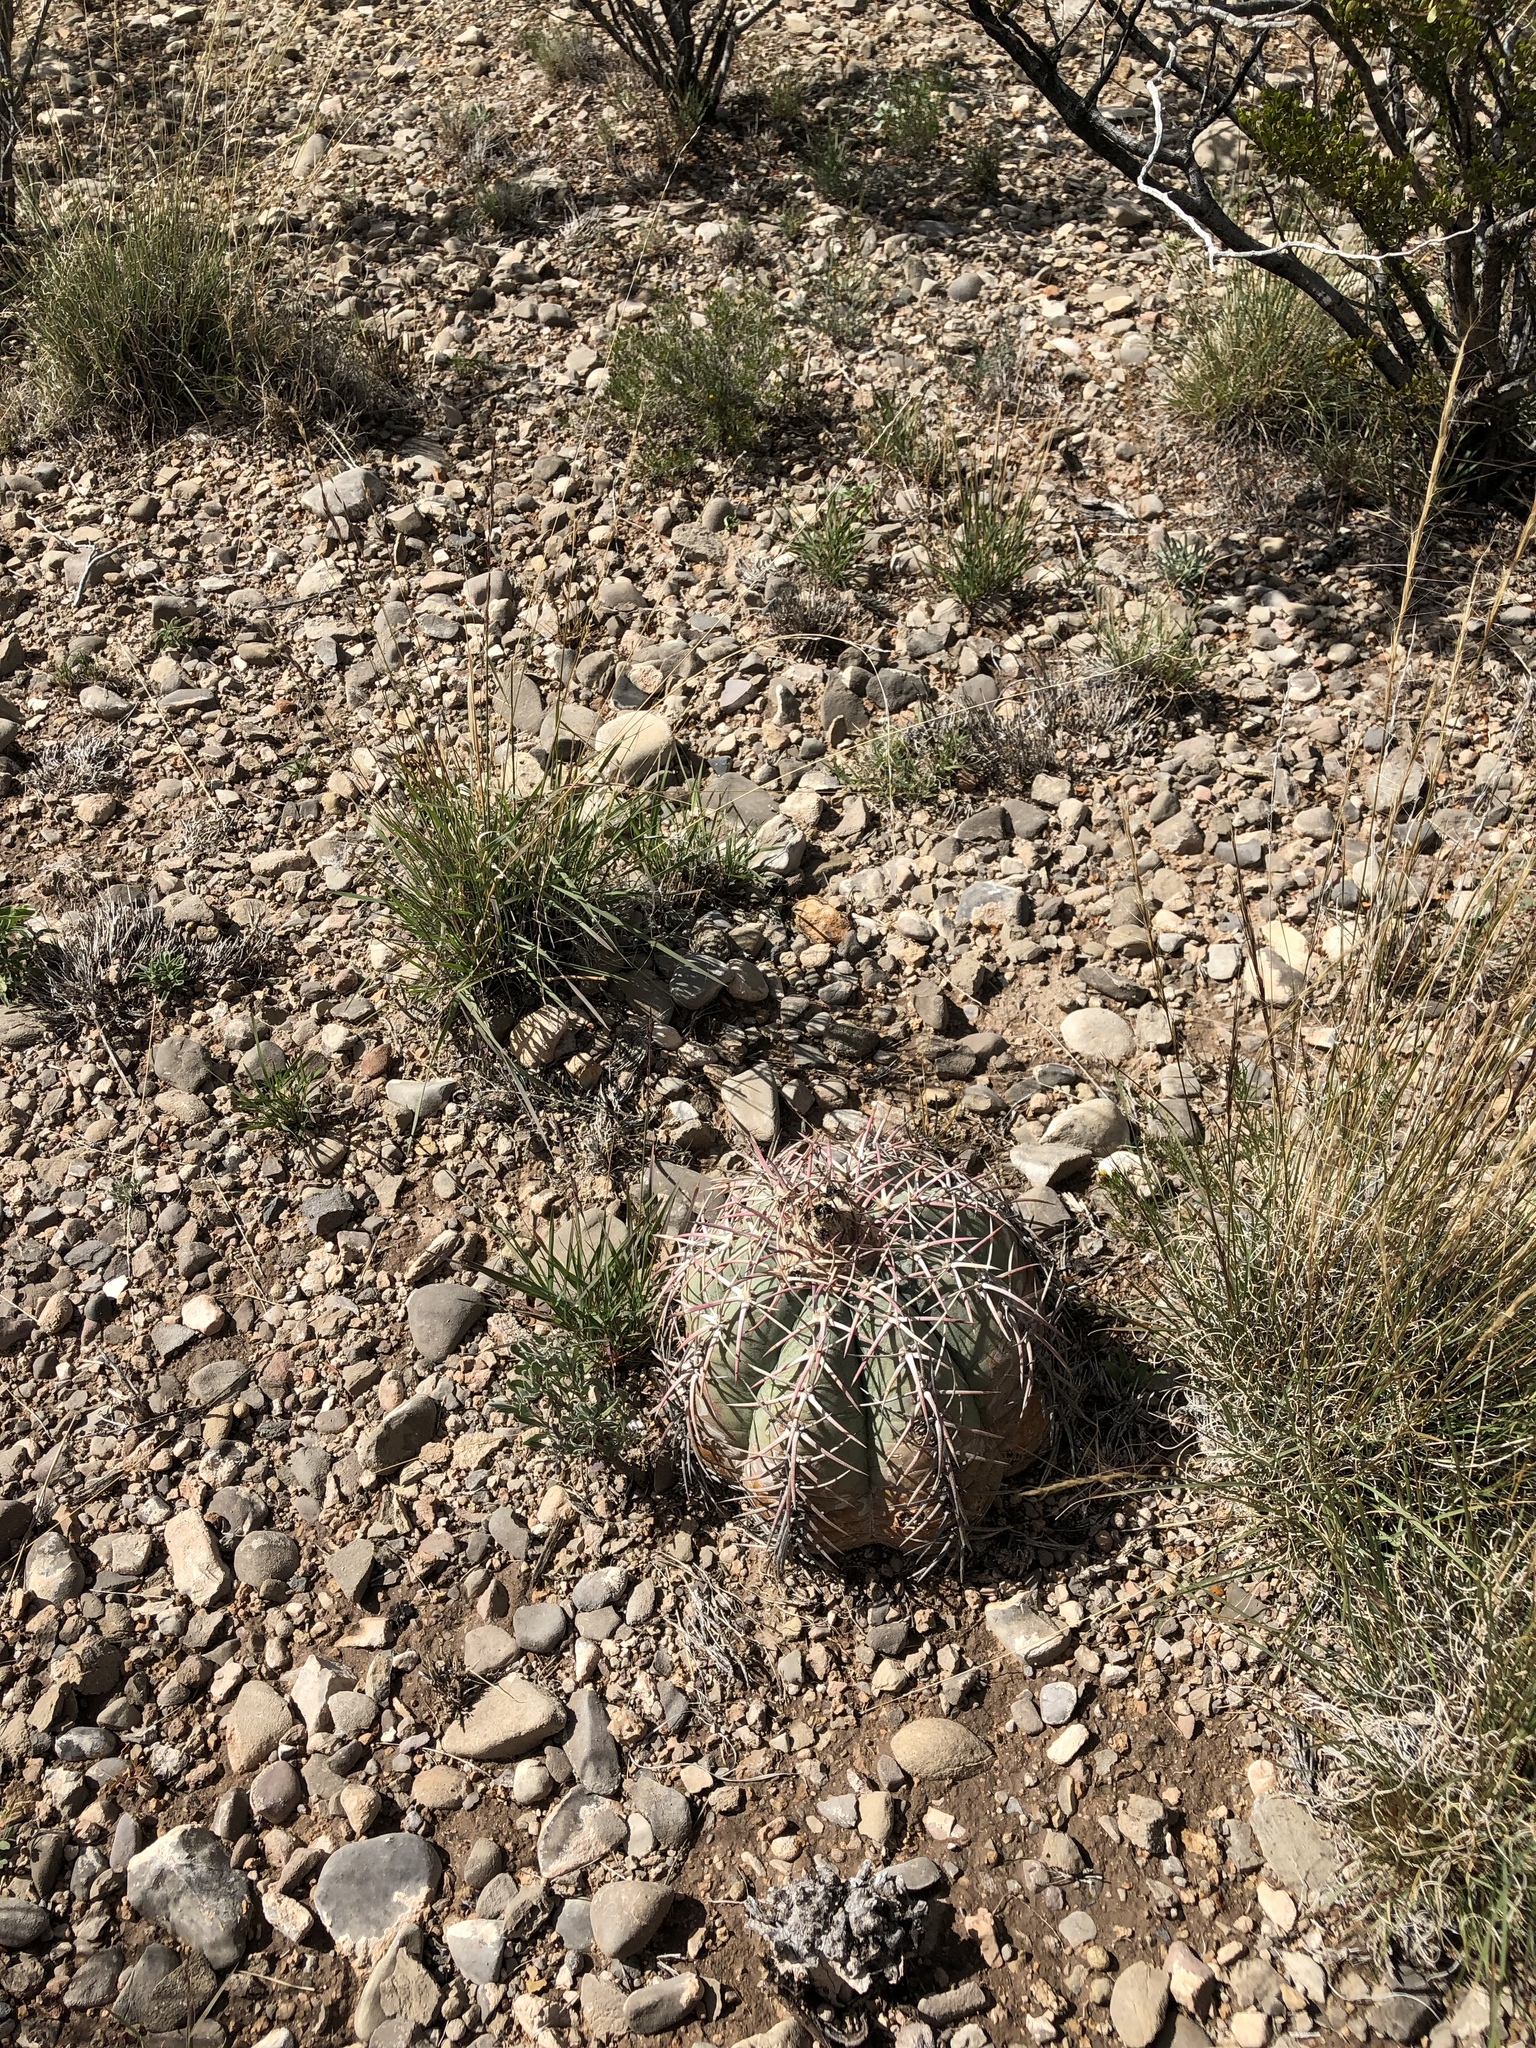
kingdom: Plantae
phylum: Tracheophyta
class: Magnoliopsida
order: Caryophyllales
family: Cactaceae
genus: Echinocactus
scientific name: Echinocactus horizonthalonius
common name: Devilshead
